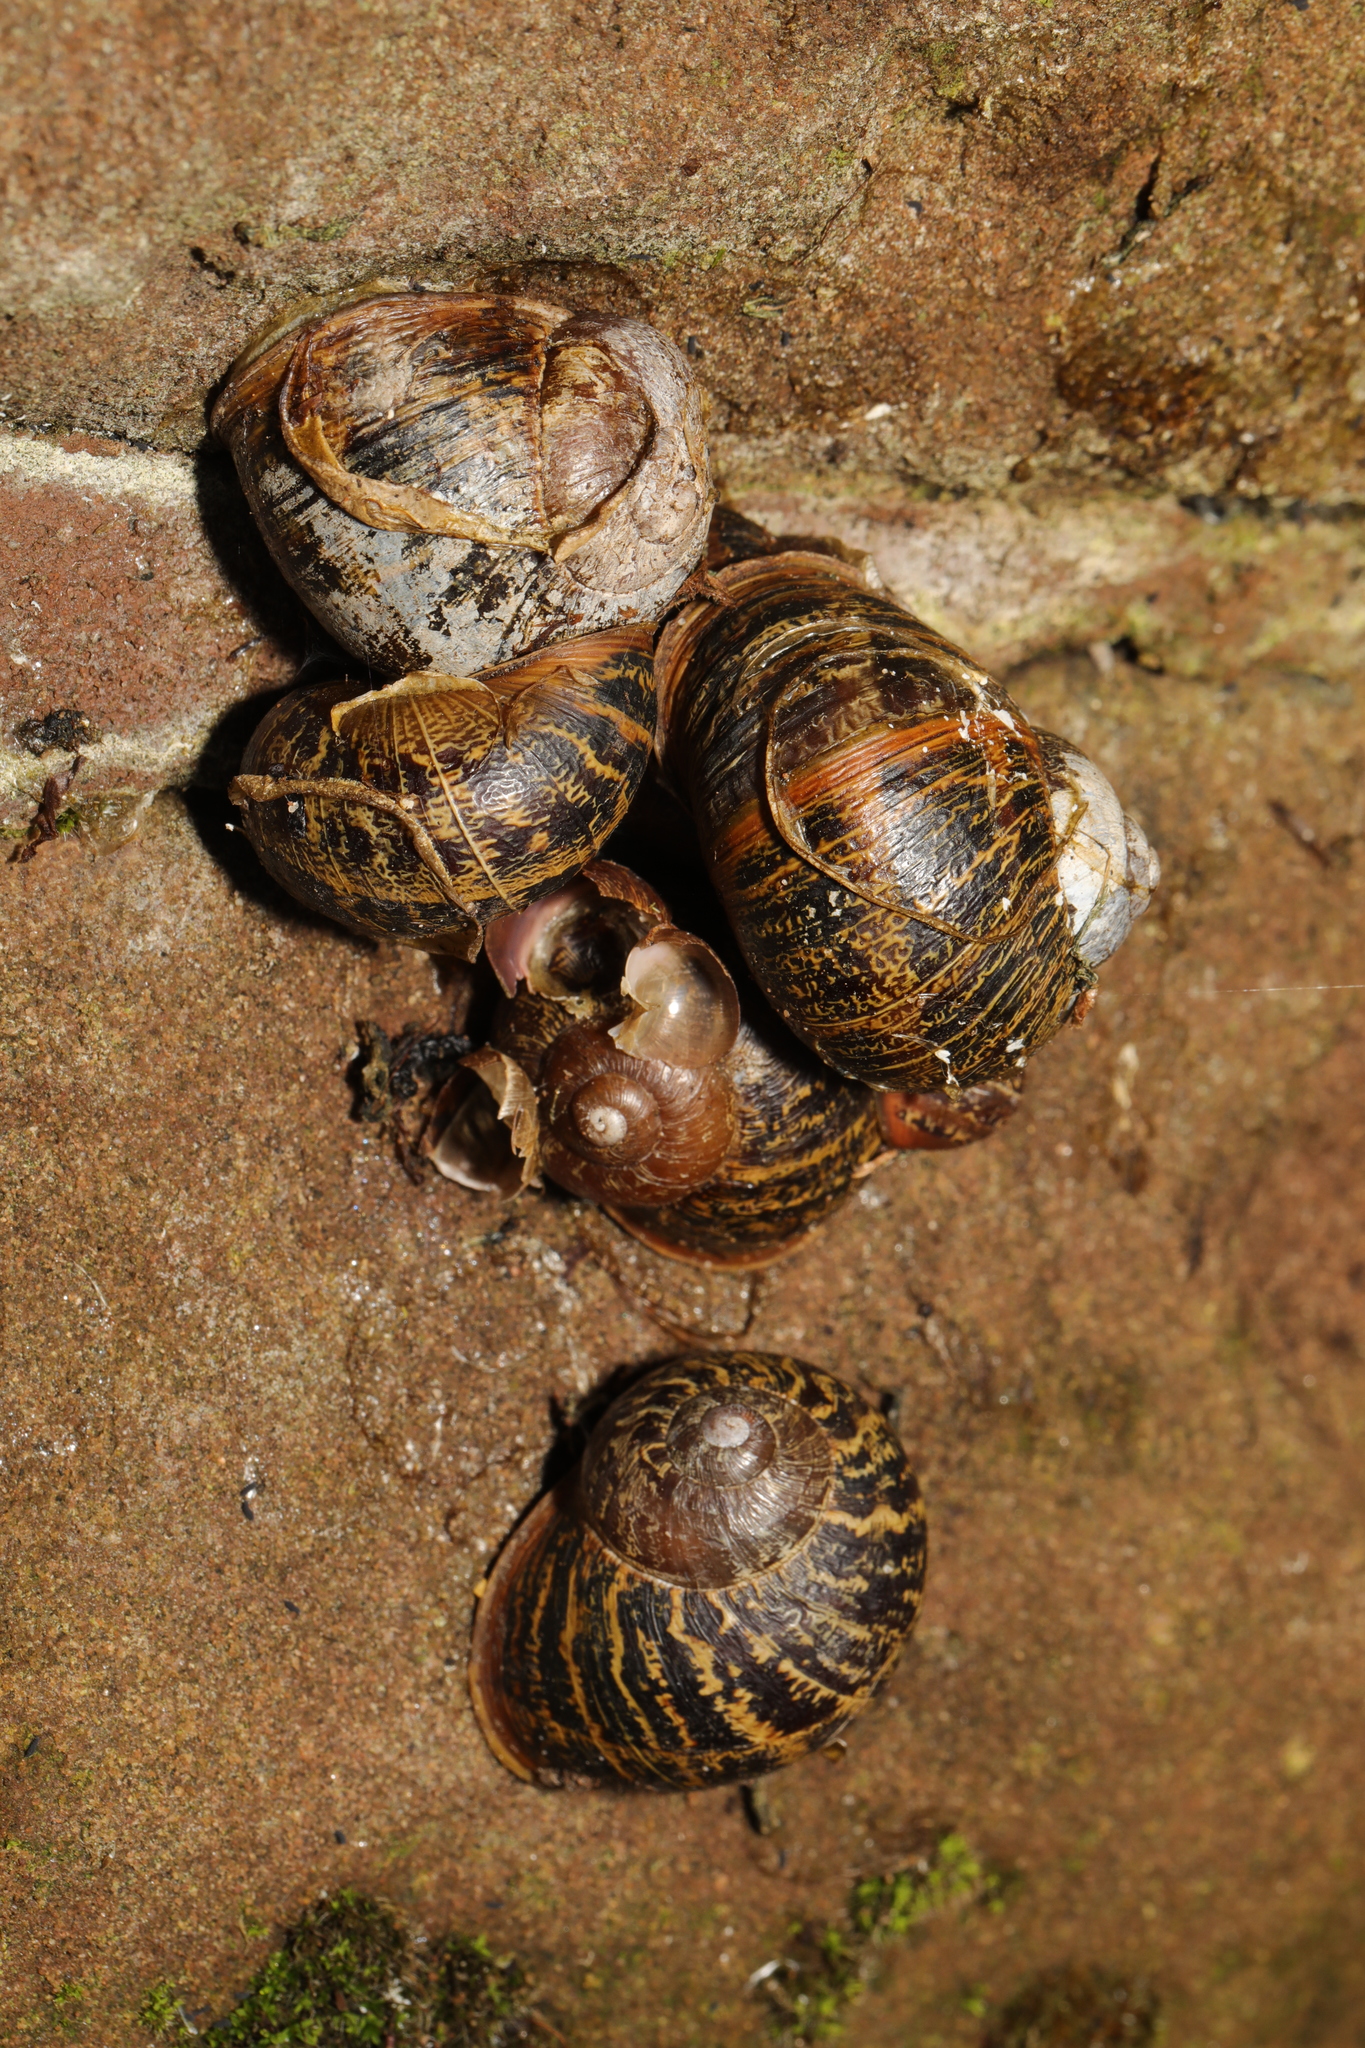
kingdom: Animalia
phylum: Mollusca
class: Gastropoda
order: Stylommatophora
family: Helicidae
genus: Cornu
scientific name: Cornu aspersum
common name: Brown garden snail
